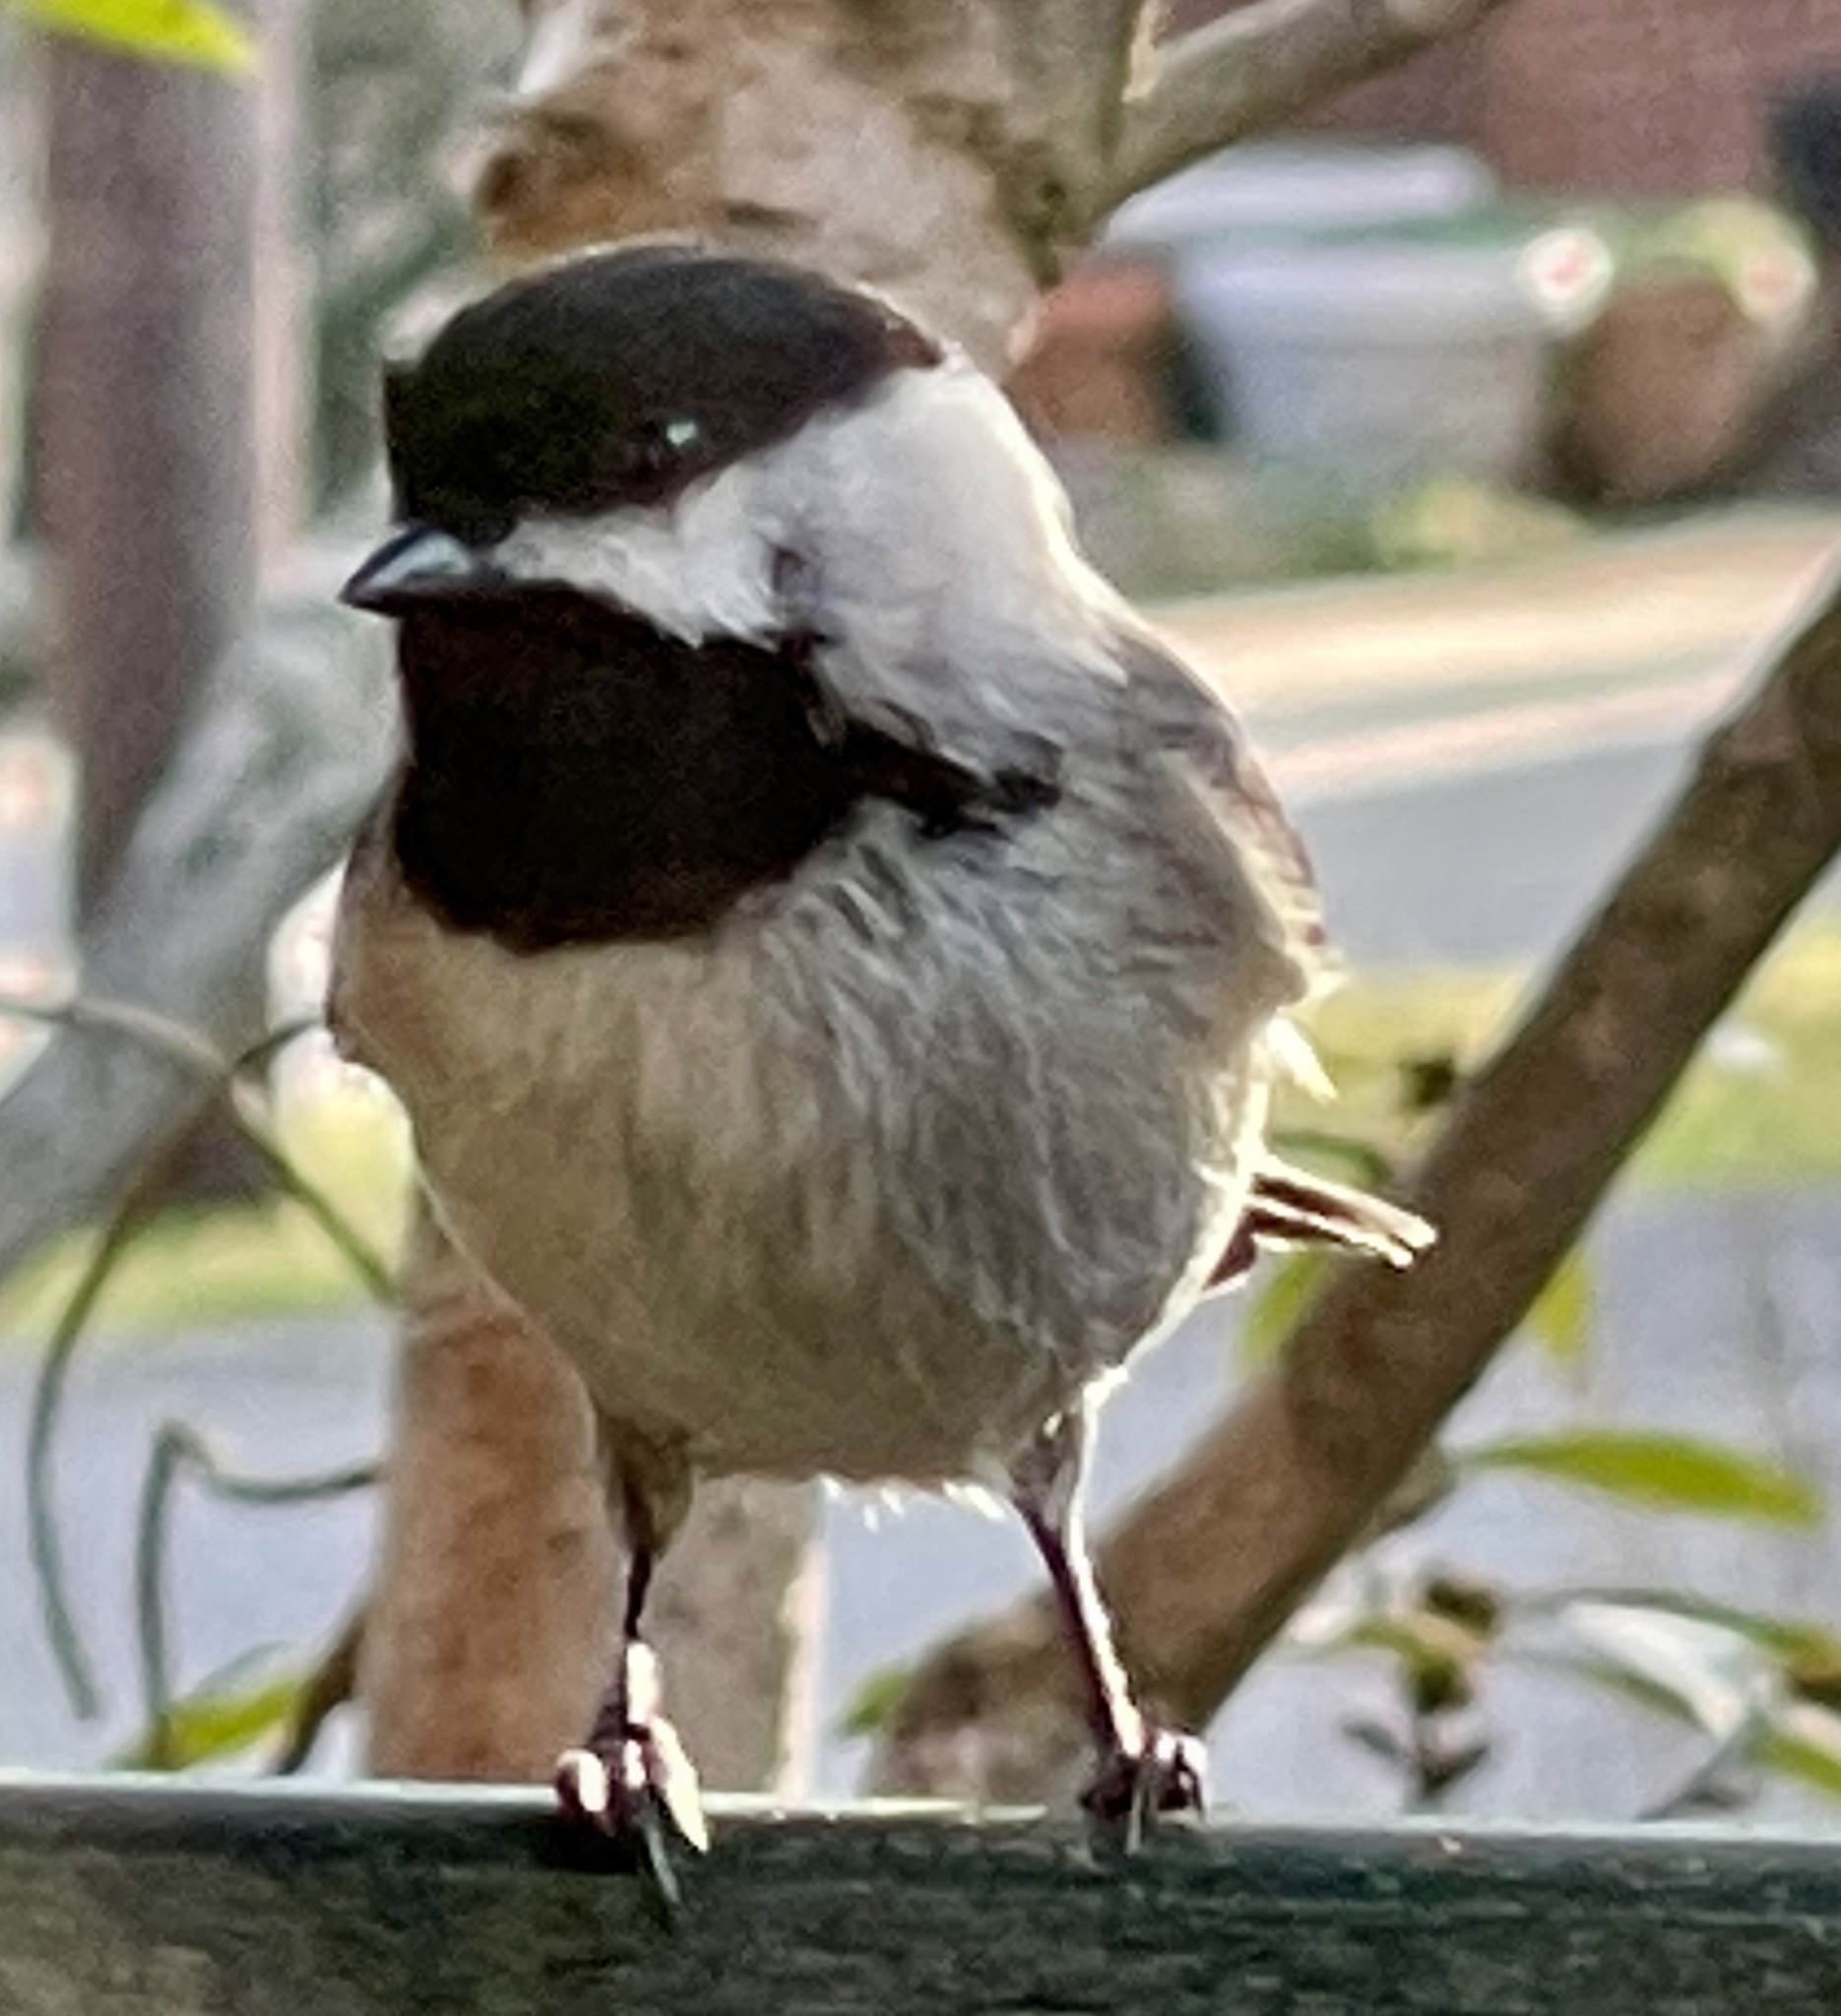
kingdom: Animalia
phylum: Chordata
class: Aves
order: Passeriformes
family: Paridae
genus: Poecile
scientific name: Poecile carolinensis
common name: Carolina chickadee
